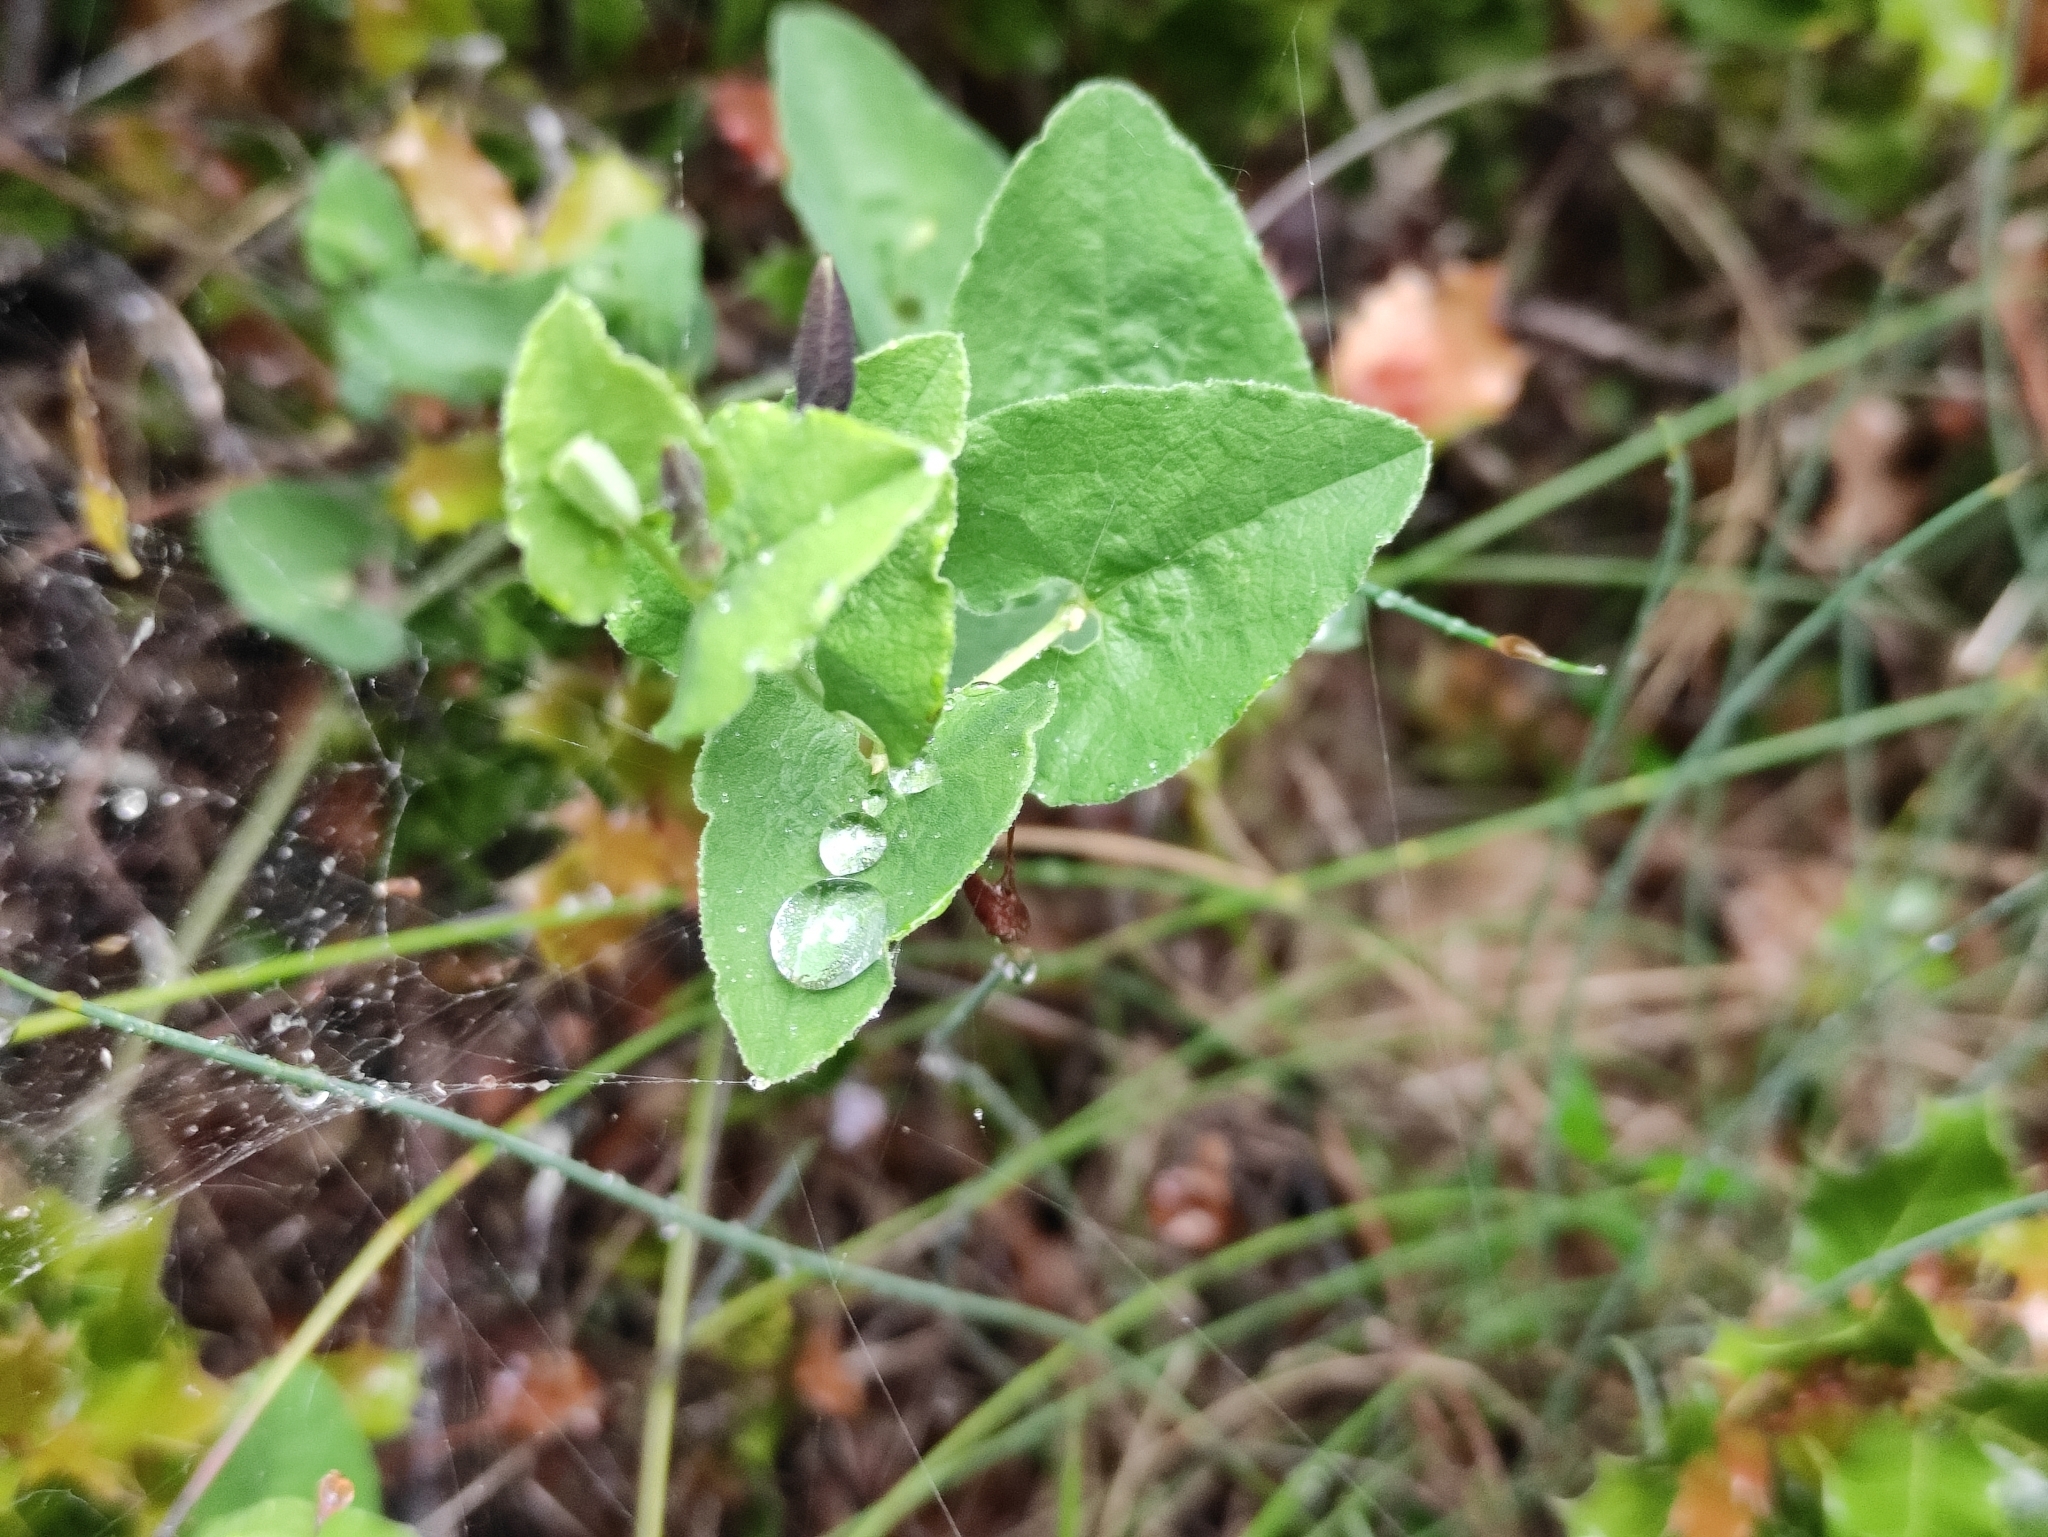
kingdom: Plantae
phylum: Tracheophyta
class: Magnoliopsida
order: Piperales
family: Aristolochiaceae
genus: Aristolochia
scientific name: Aristolochia pistolochia
